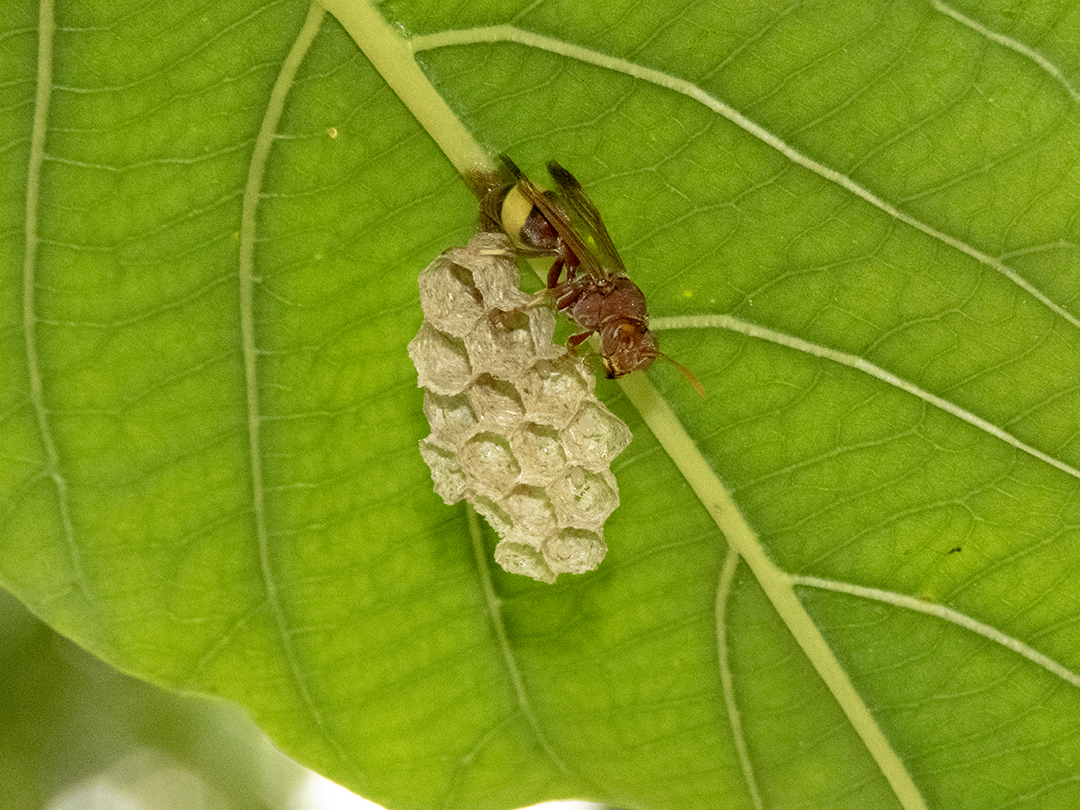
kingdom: Animalia
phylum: Arthropoda
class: Insecta
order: Hymenoptera
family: Vespidae
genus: Ropalidia
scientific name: Ropalidia
